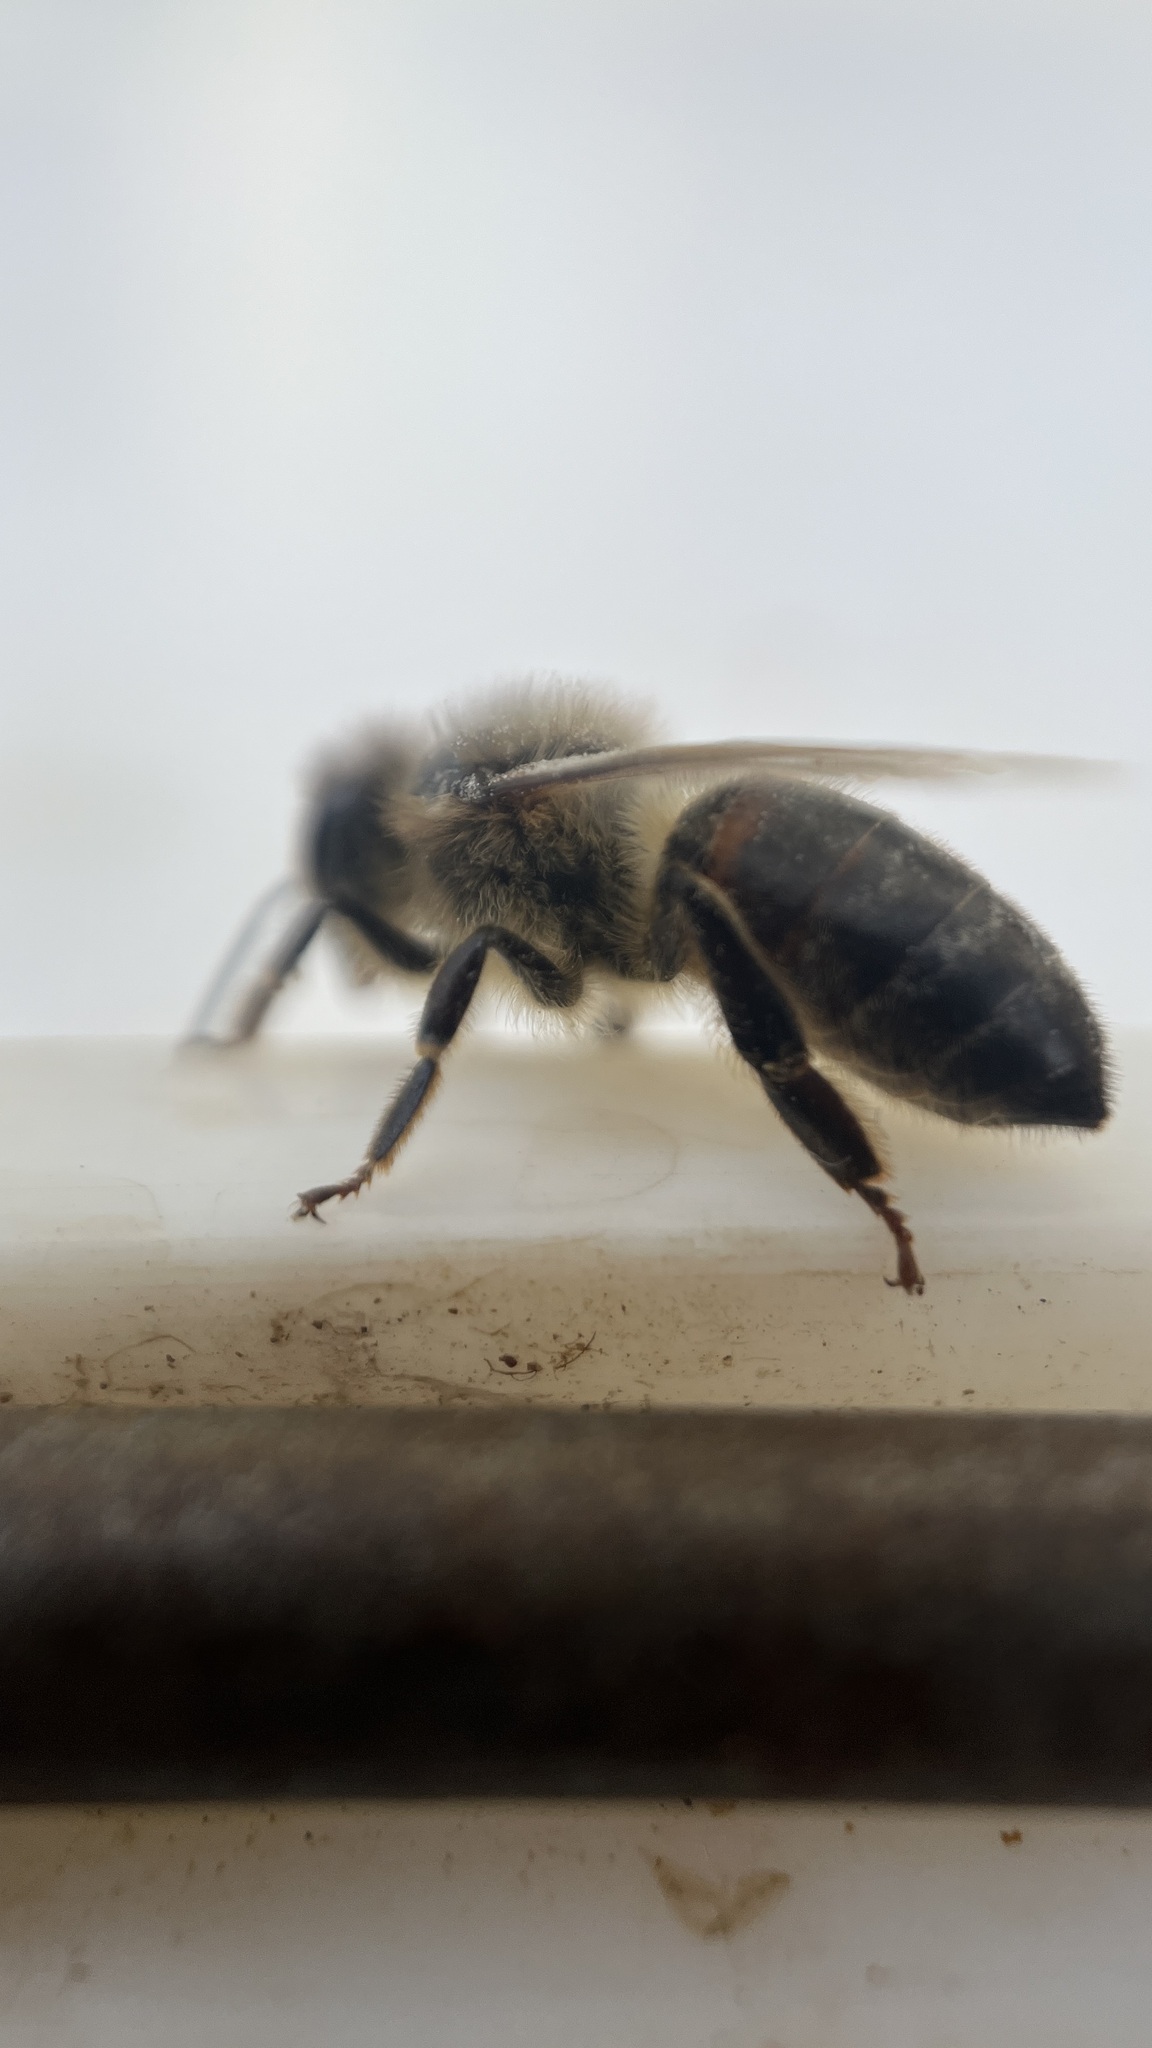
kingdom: Animalia
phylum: Arthropoda
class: Insecta
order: Hymenoptera
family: Apidae
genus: Apis
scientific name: Apis mellifera
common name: Honey bee
